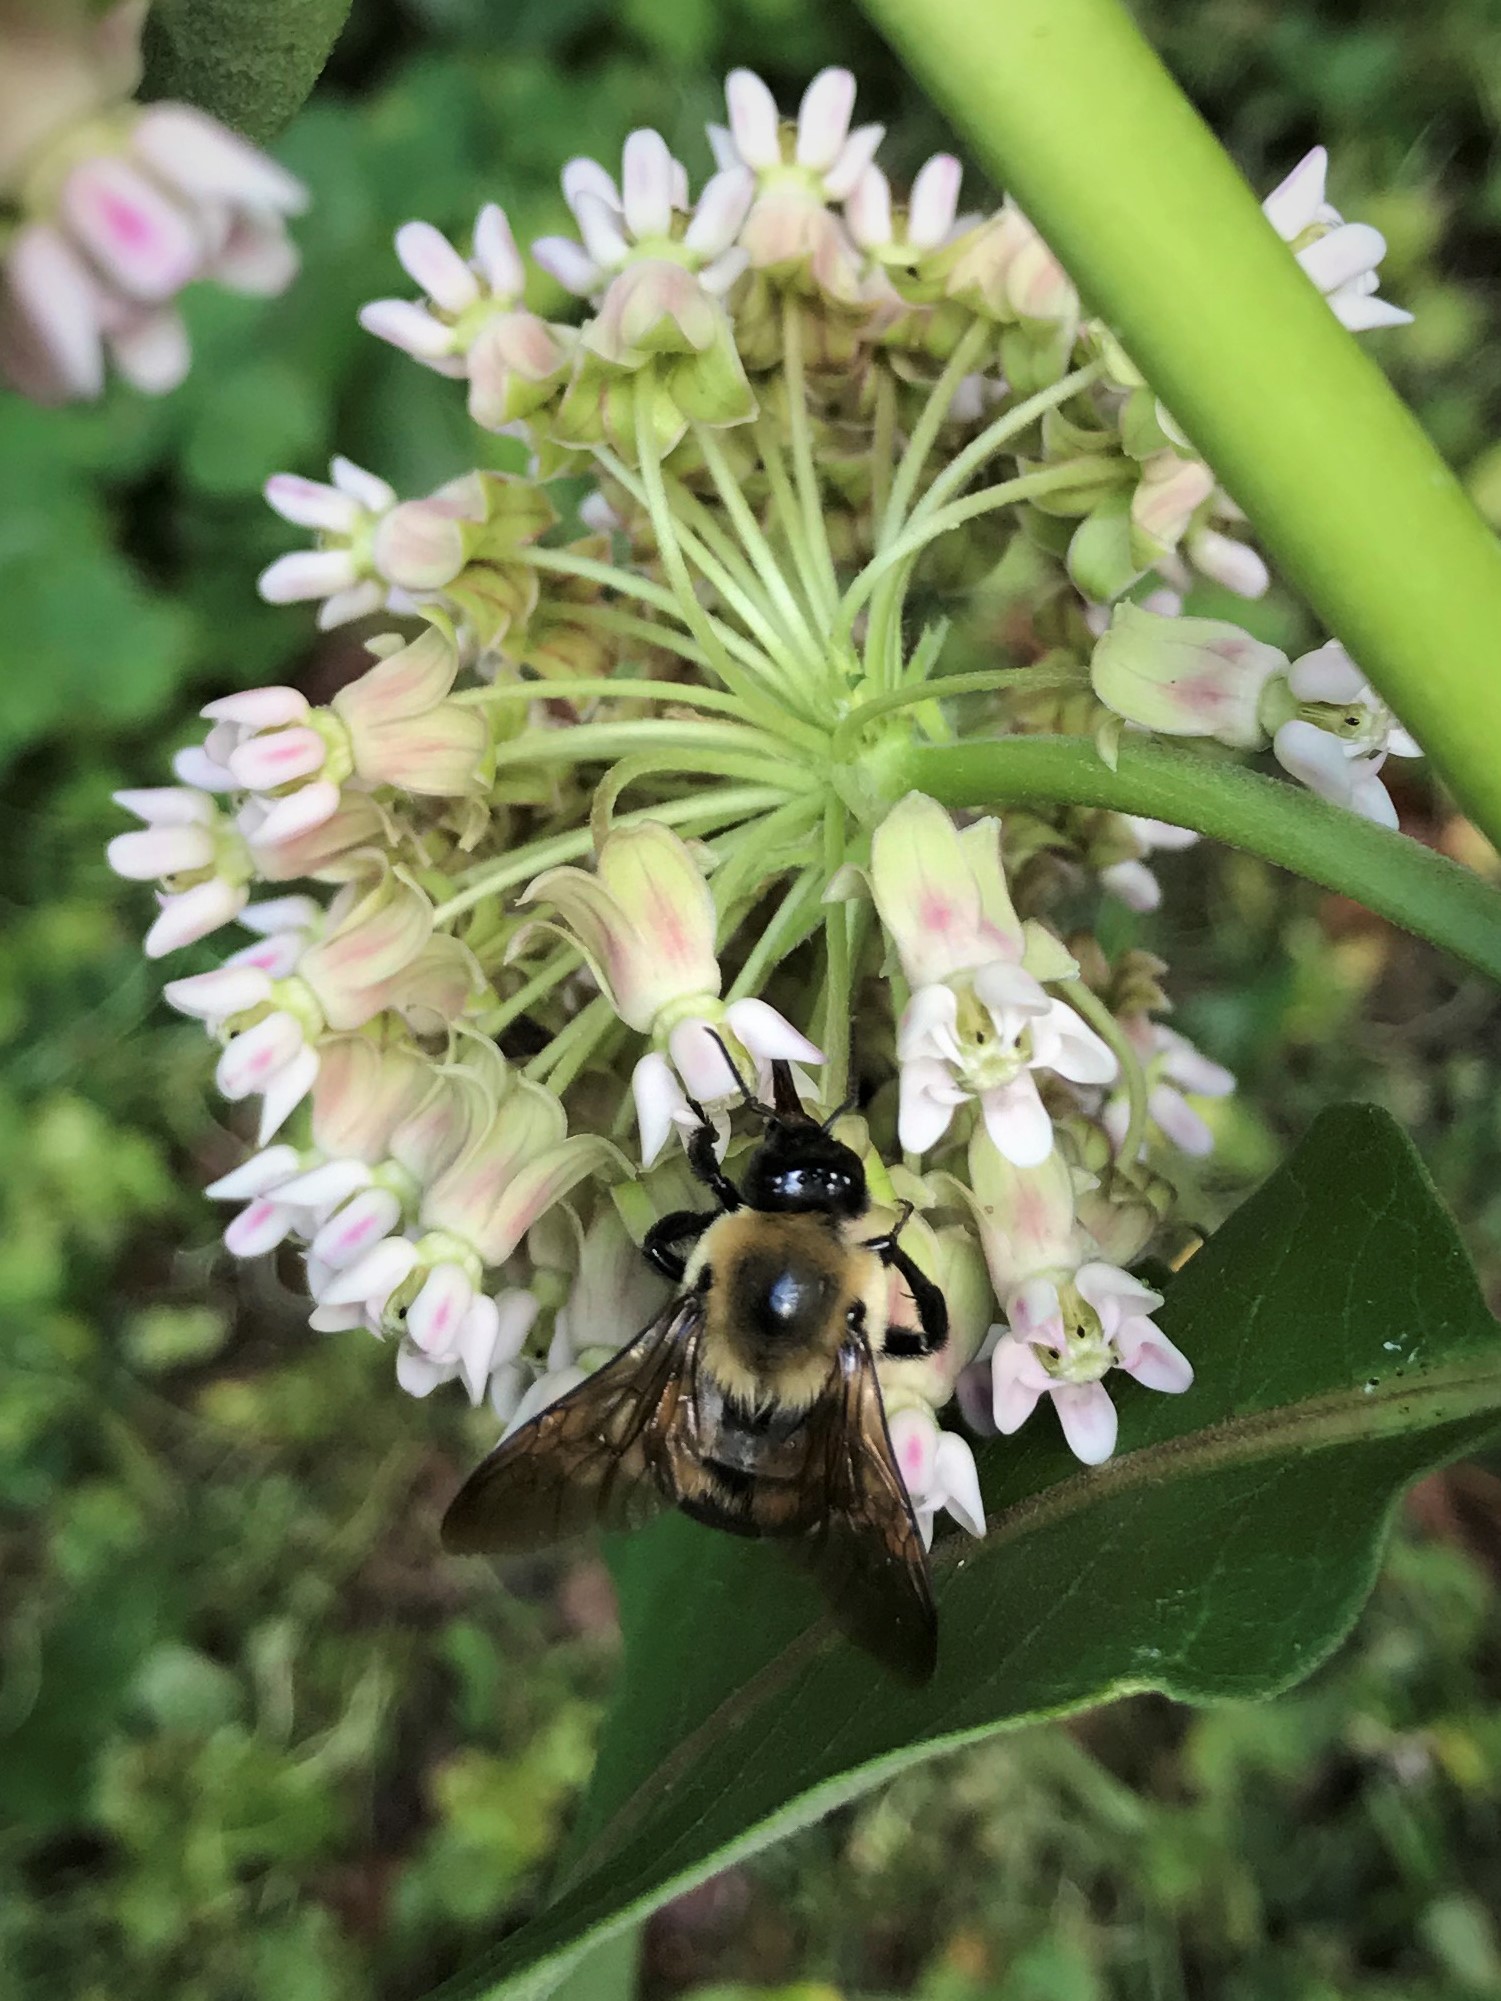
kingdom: Animalia
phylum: Arthropoda
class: Insecta
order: Hymenoptera
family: Apidae
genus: Bombus
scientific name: Bombus griseocollis
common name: Brown-belted bumble bee
